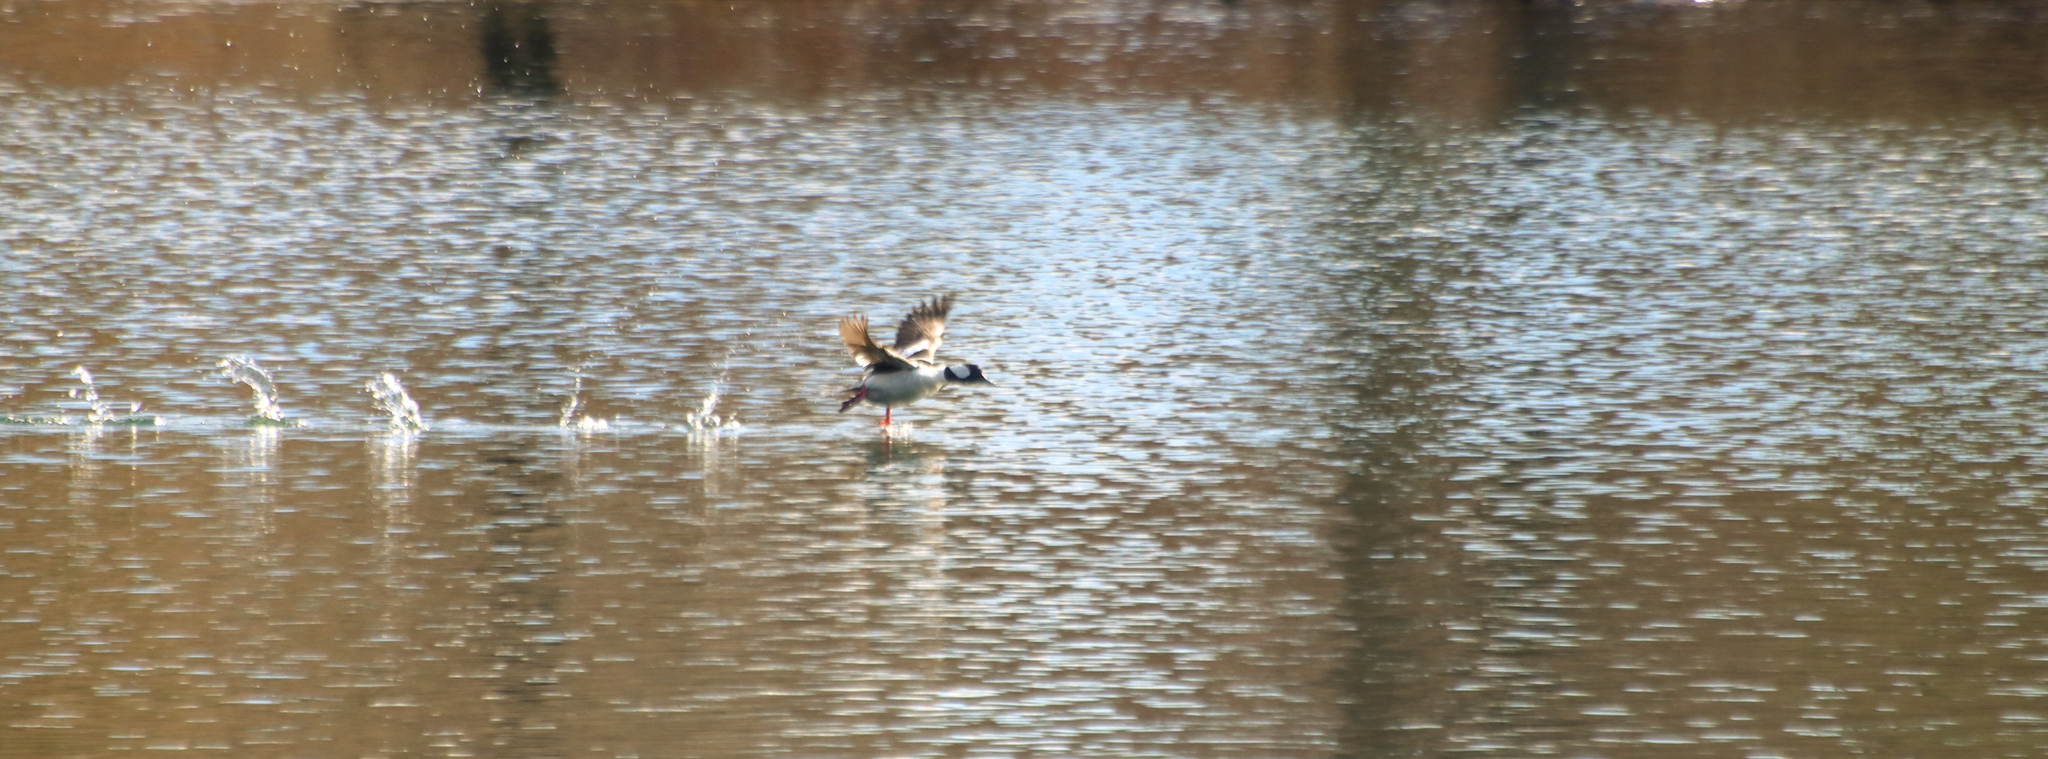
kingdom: Animalia
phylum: Chordata
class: Aves
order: Anseriformes
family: Anatidae
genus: Bucephala
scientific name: Bucephala albeola
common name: Bufflehead
